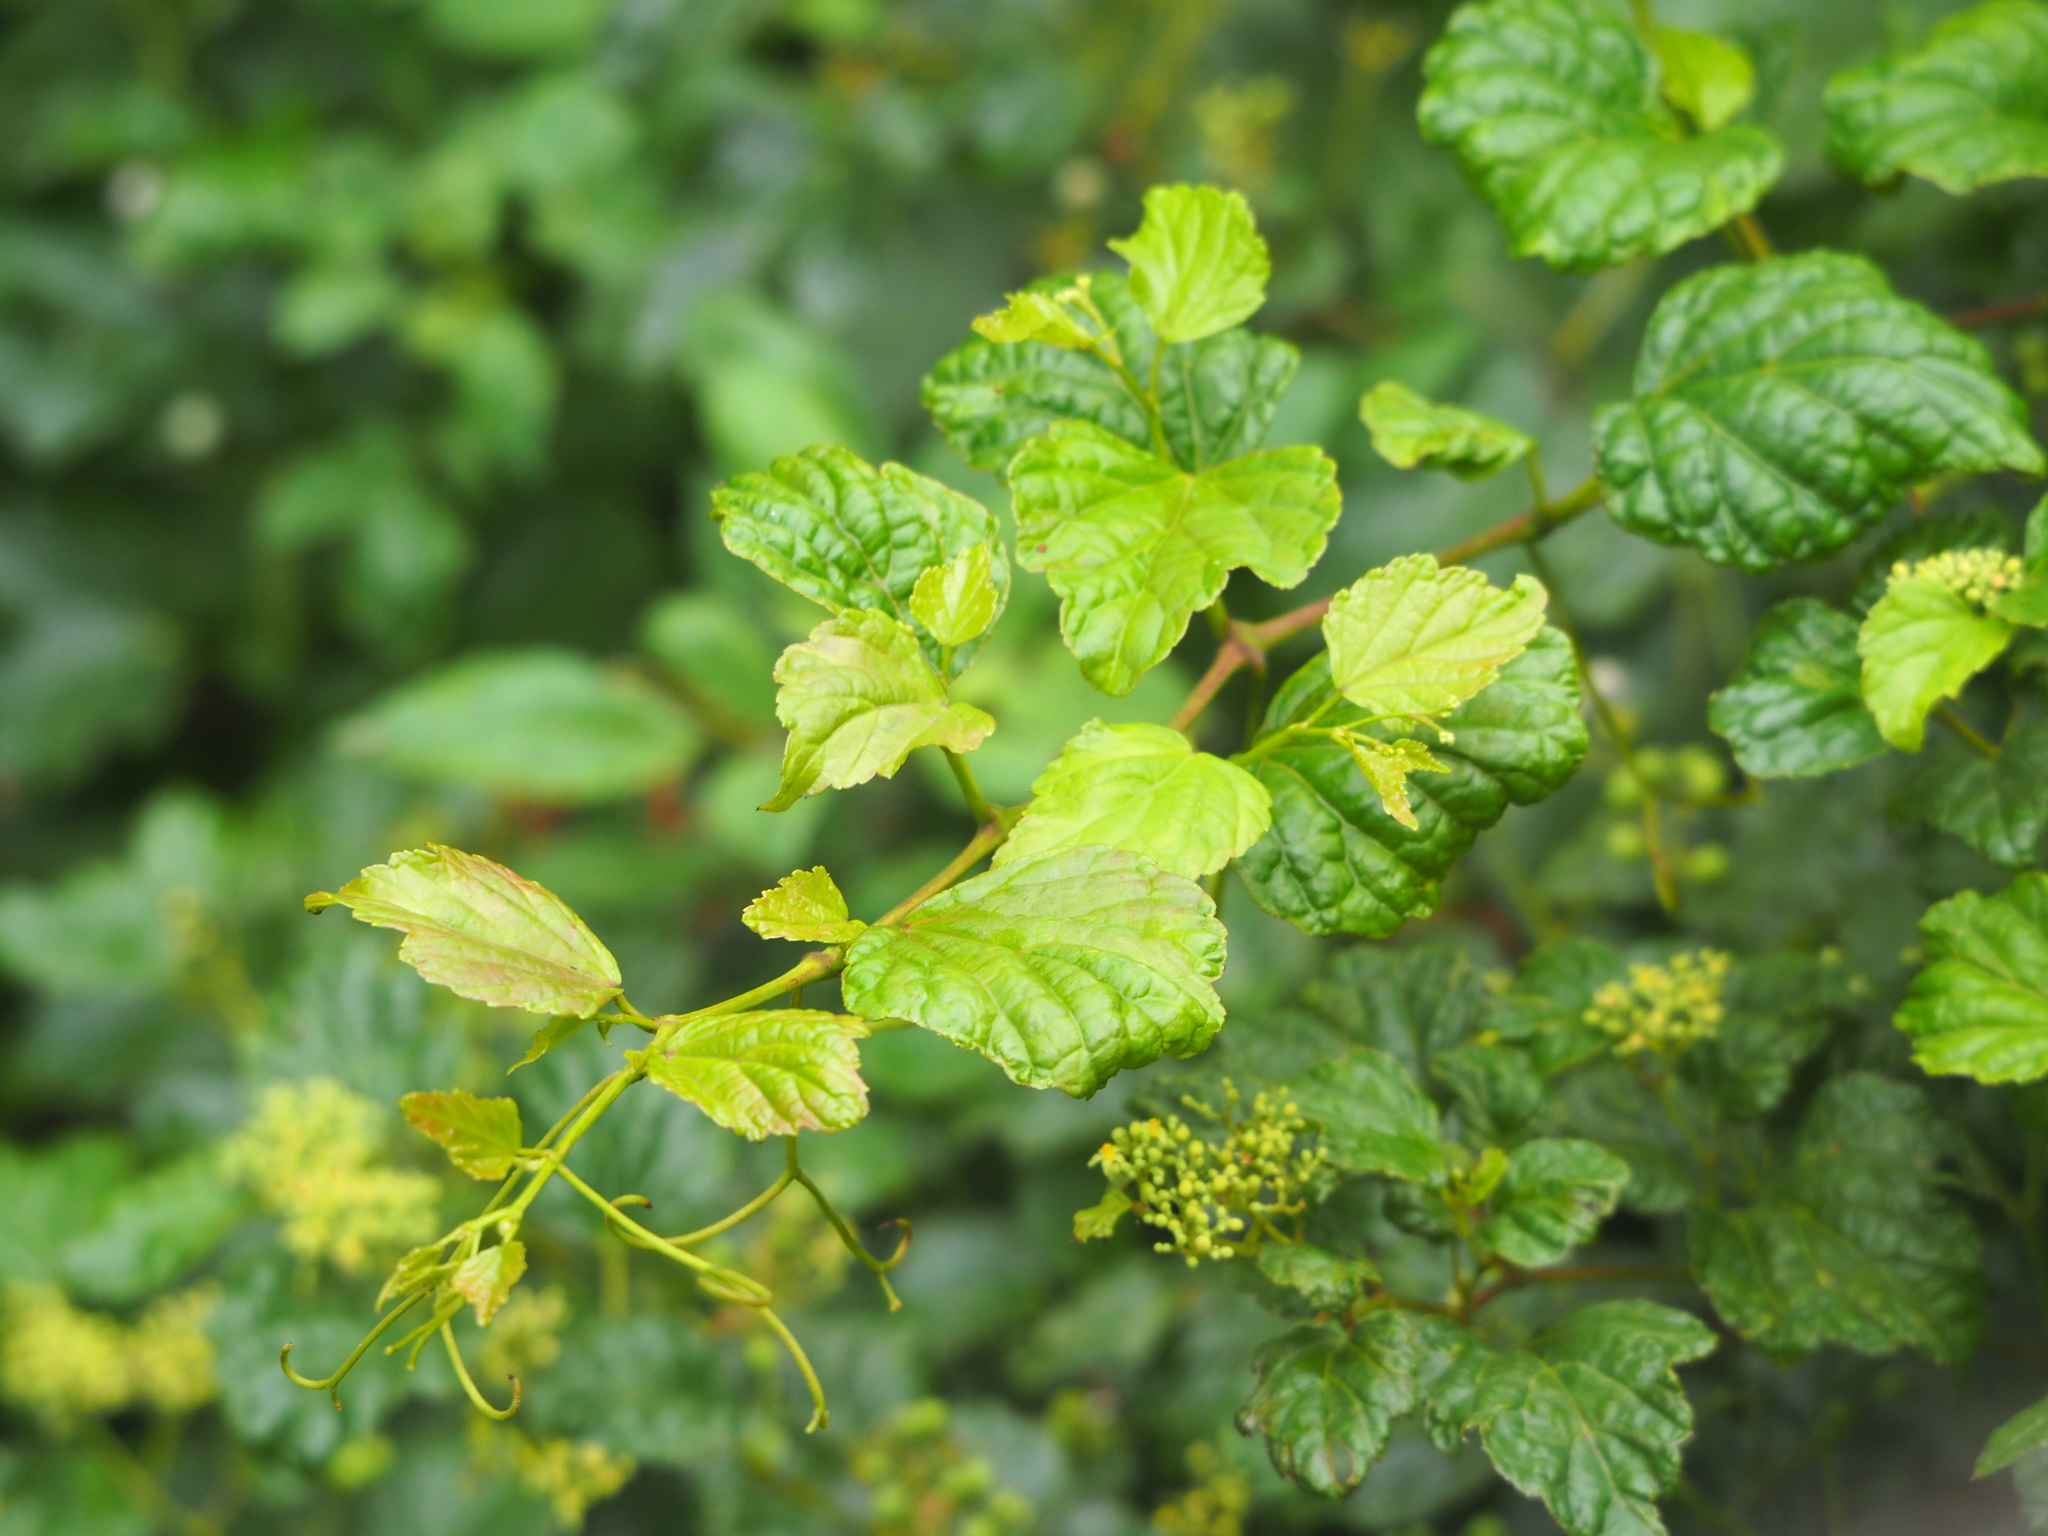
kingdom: Plantae
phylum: Tracheophyta
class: Magnoliopsida
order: Vitales
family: Vitaceae
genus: Ampelopsis
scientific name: Ampelopsis glandulosa
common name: Amur peppervine
